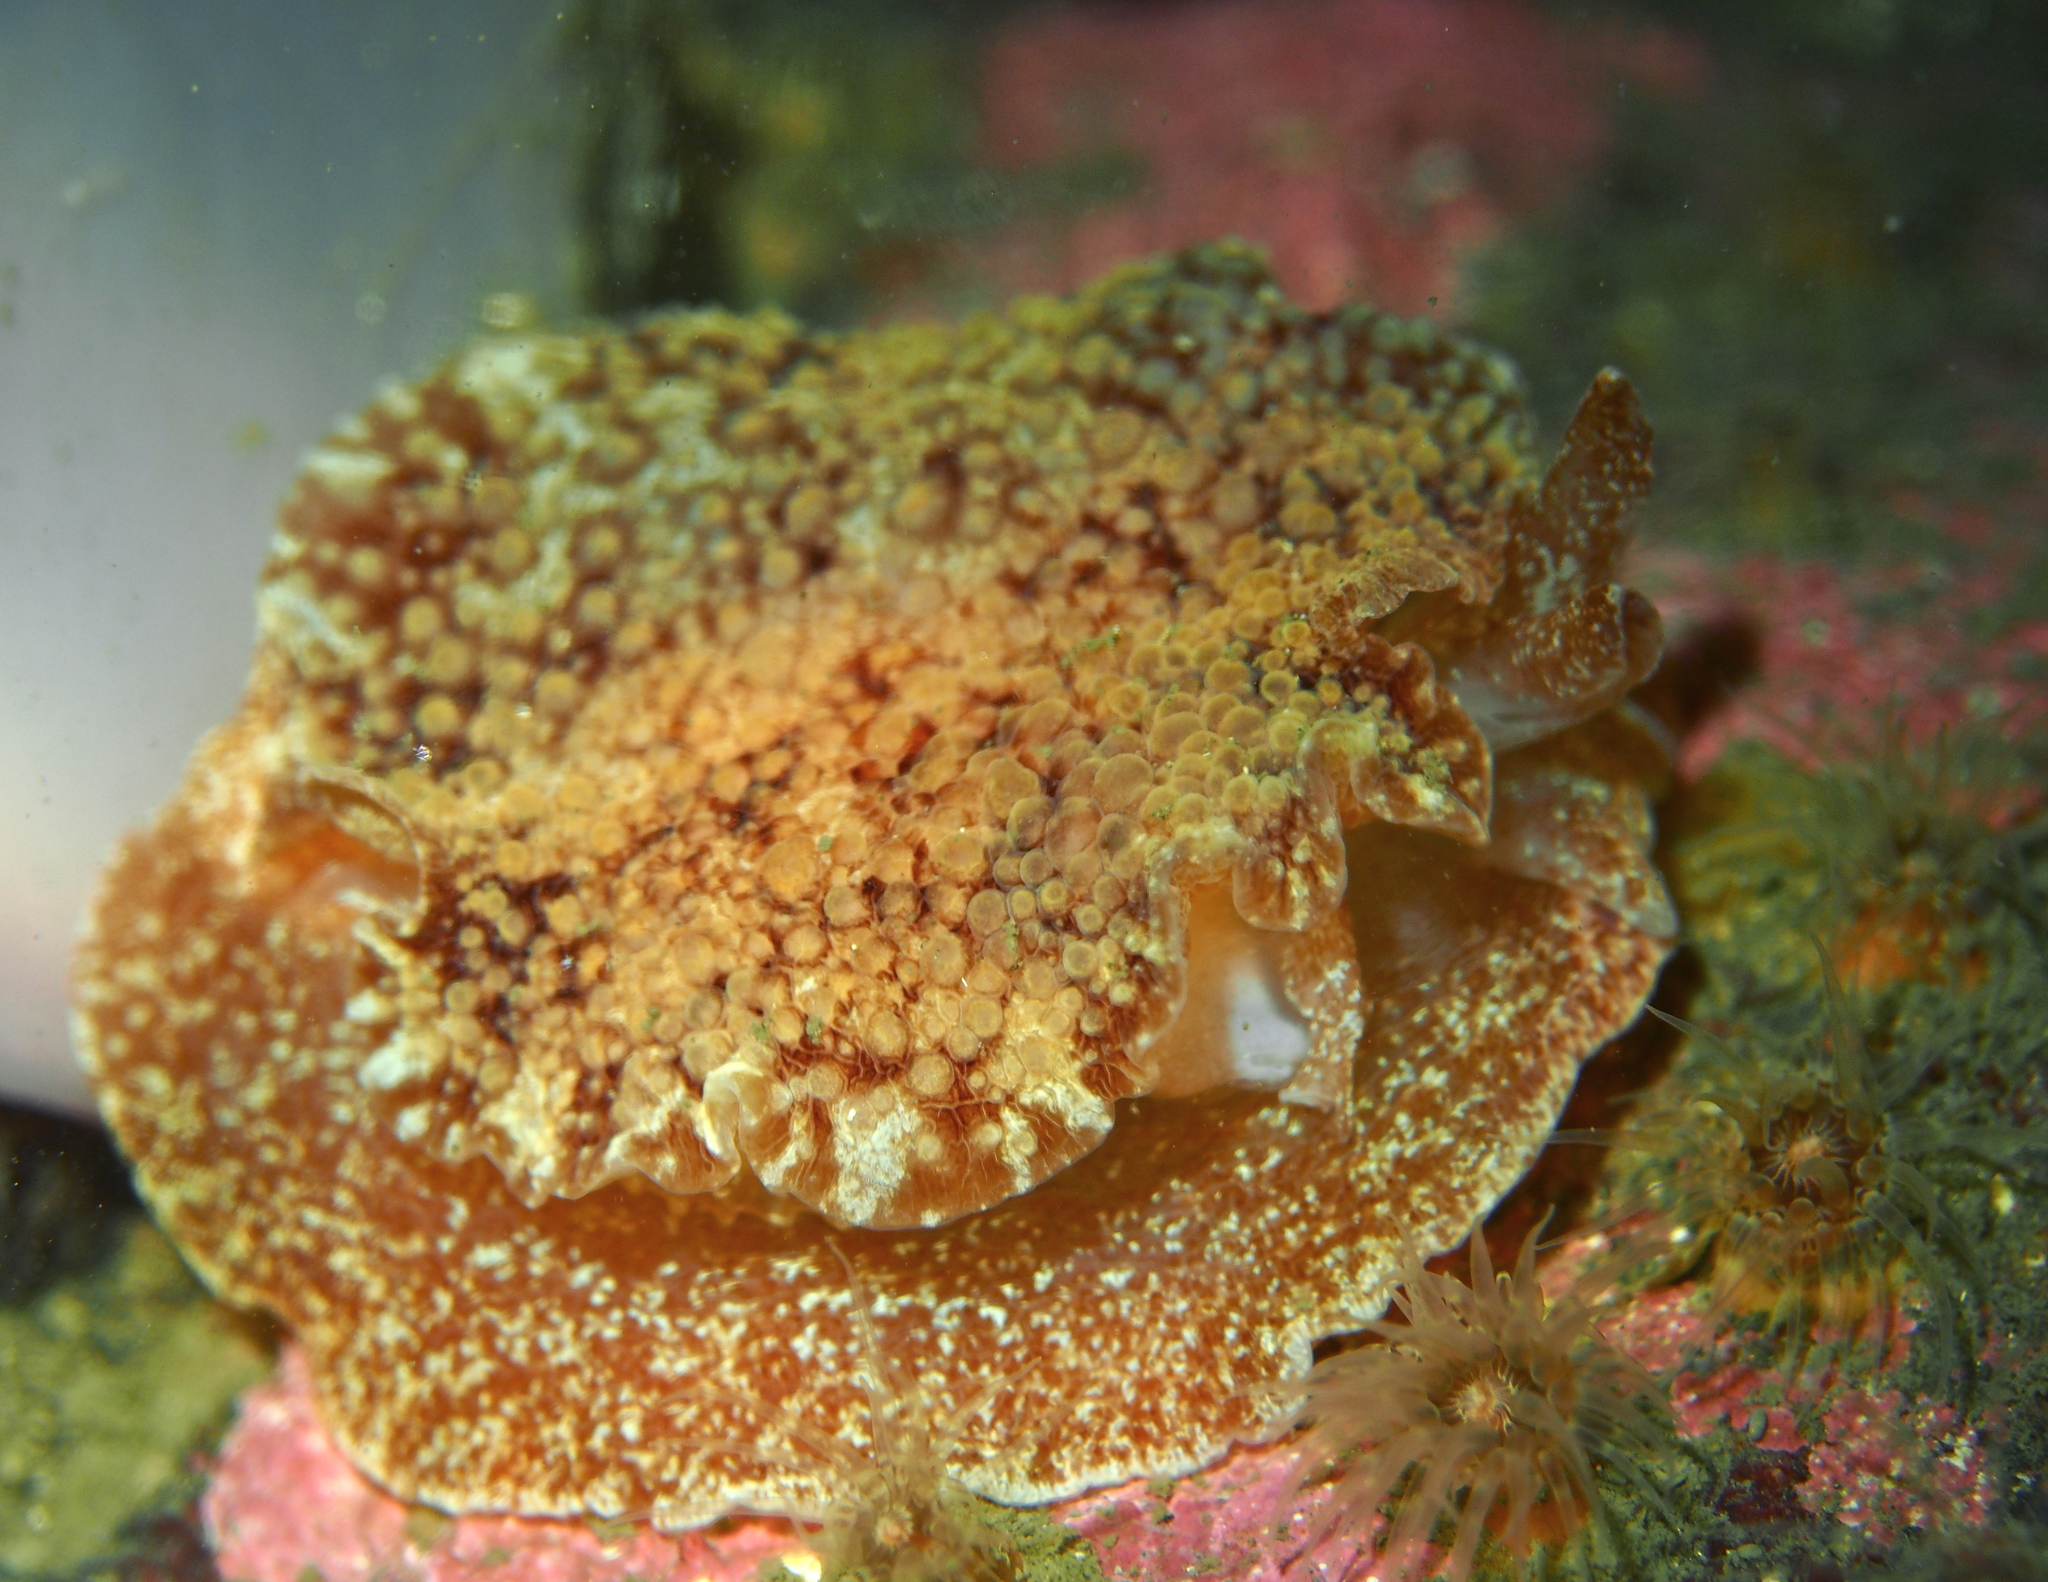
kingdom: Animalia
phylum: Mollusca
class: Gastropoda
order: Pleurobranchida
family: Pleurobranchidae
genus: Pleurobranchus
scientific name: Pleurobranchus membranaceus
